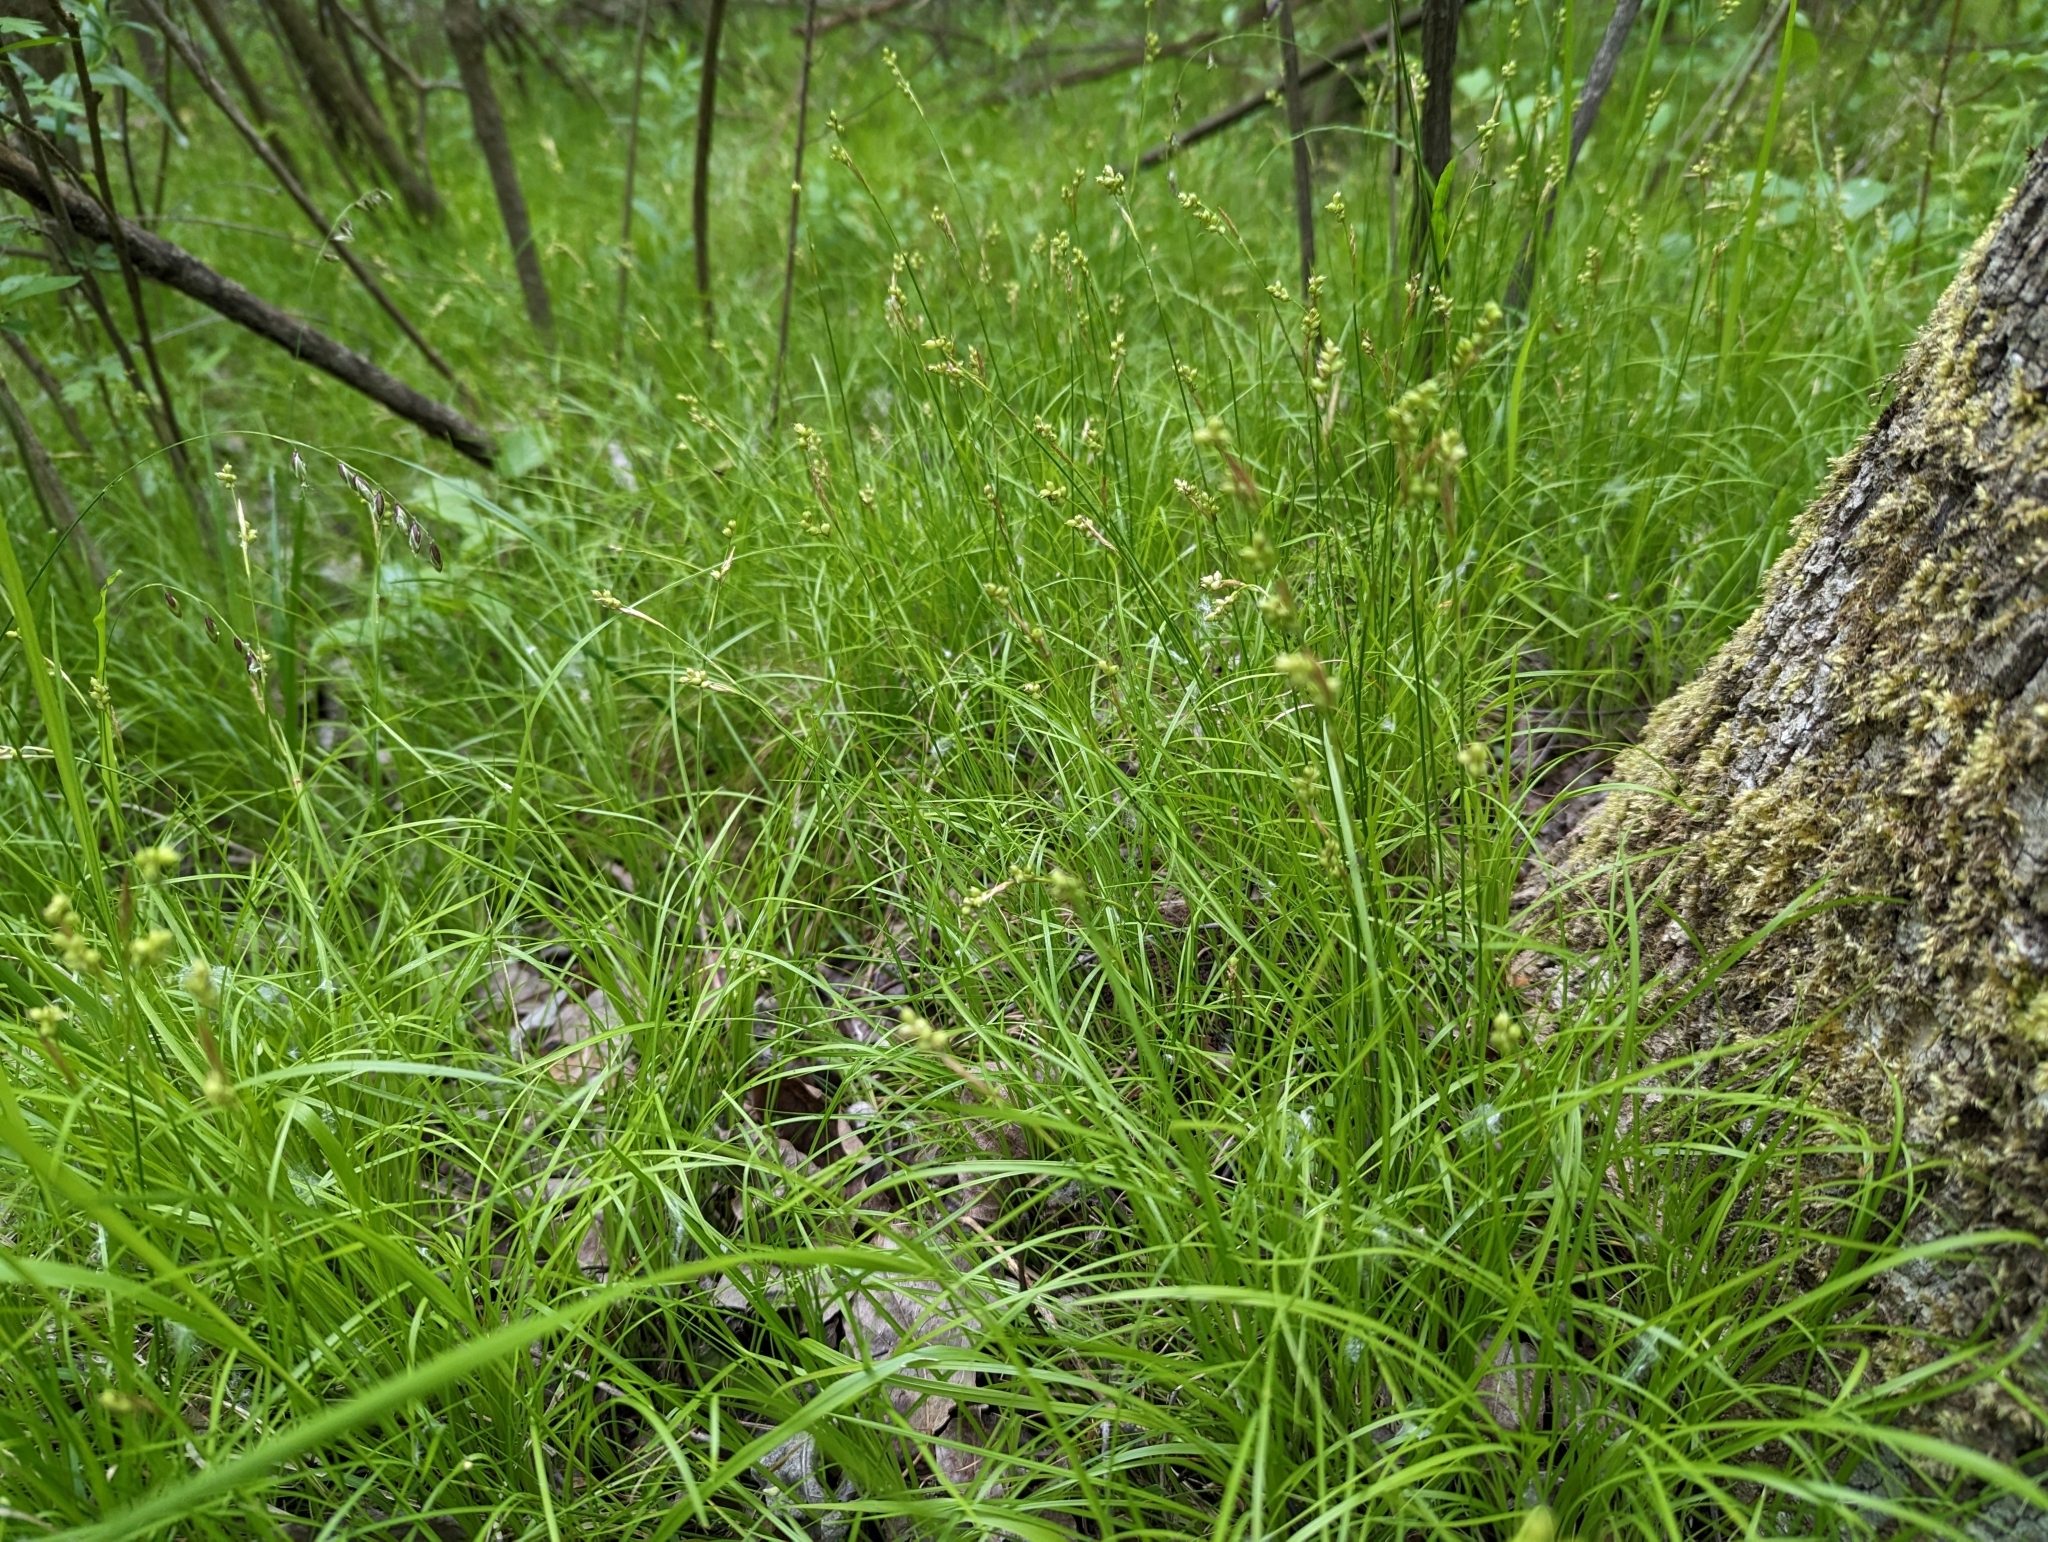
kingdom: Plantae
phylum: Tracheophyta
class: Liliopsida
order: Poales
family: Cyperaceae
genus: Carex
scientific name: Carex alba
